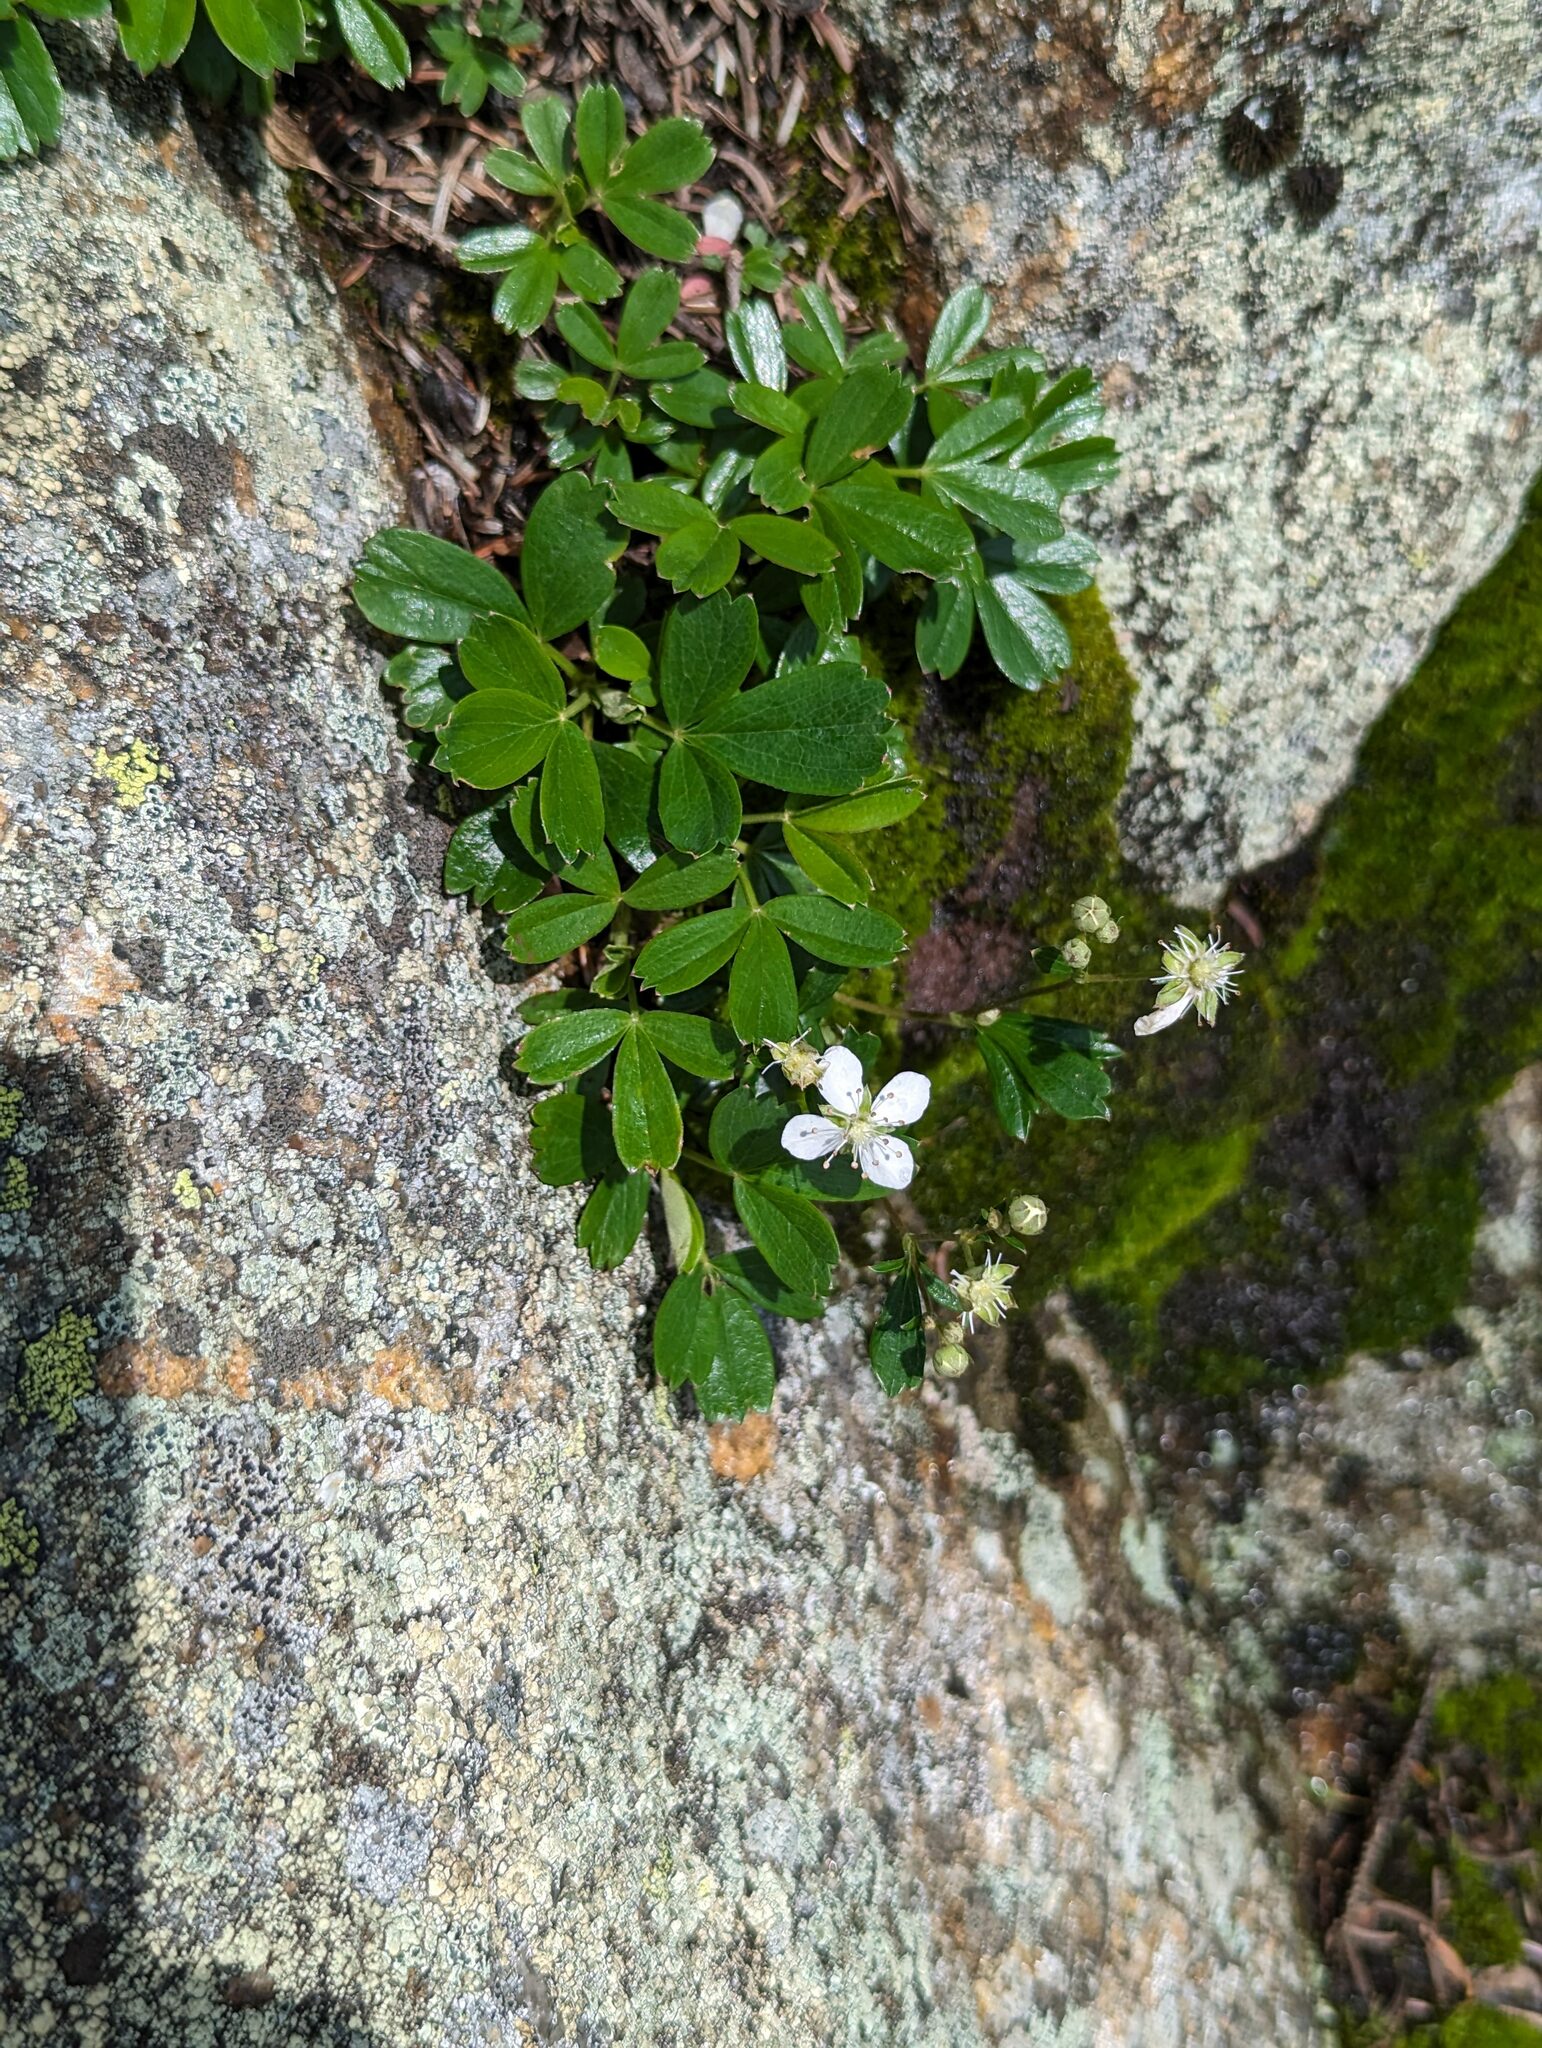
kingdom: Plantae
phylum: Tracheophyta
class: Magnoliopsida
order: Rosales
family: Rosaceae
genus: Sibbaldia
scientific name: Sibbaldia tridentata
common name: Three-toothed cinquefoil
